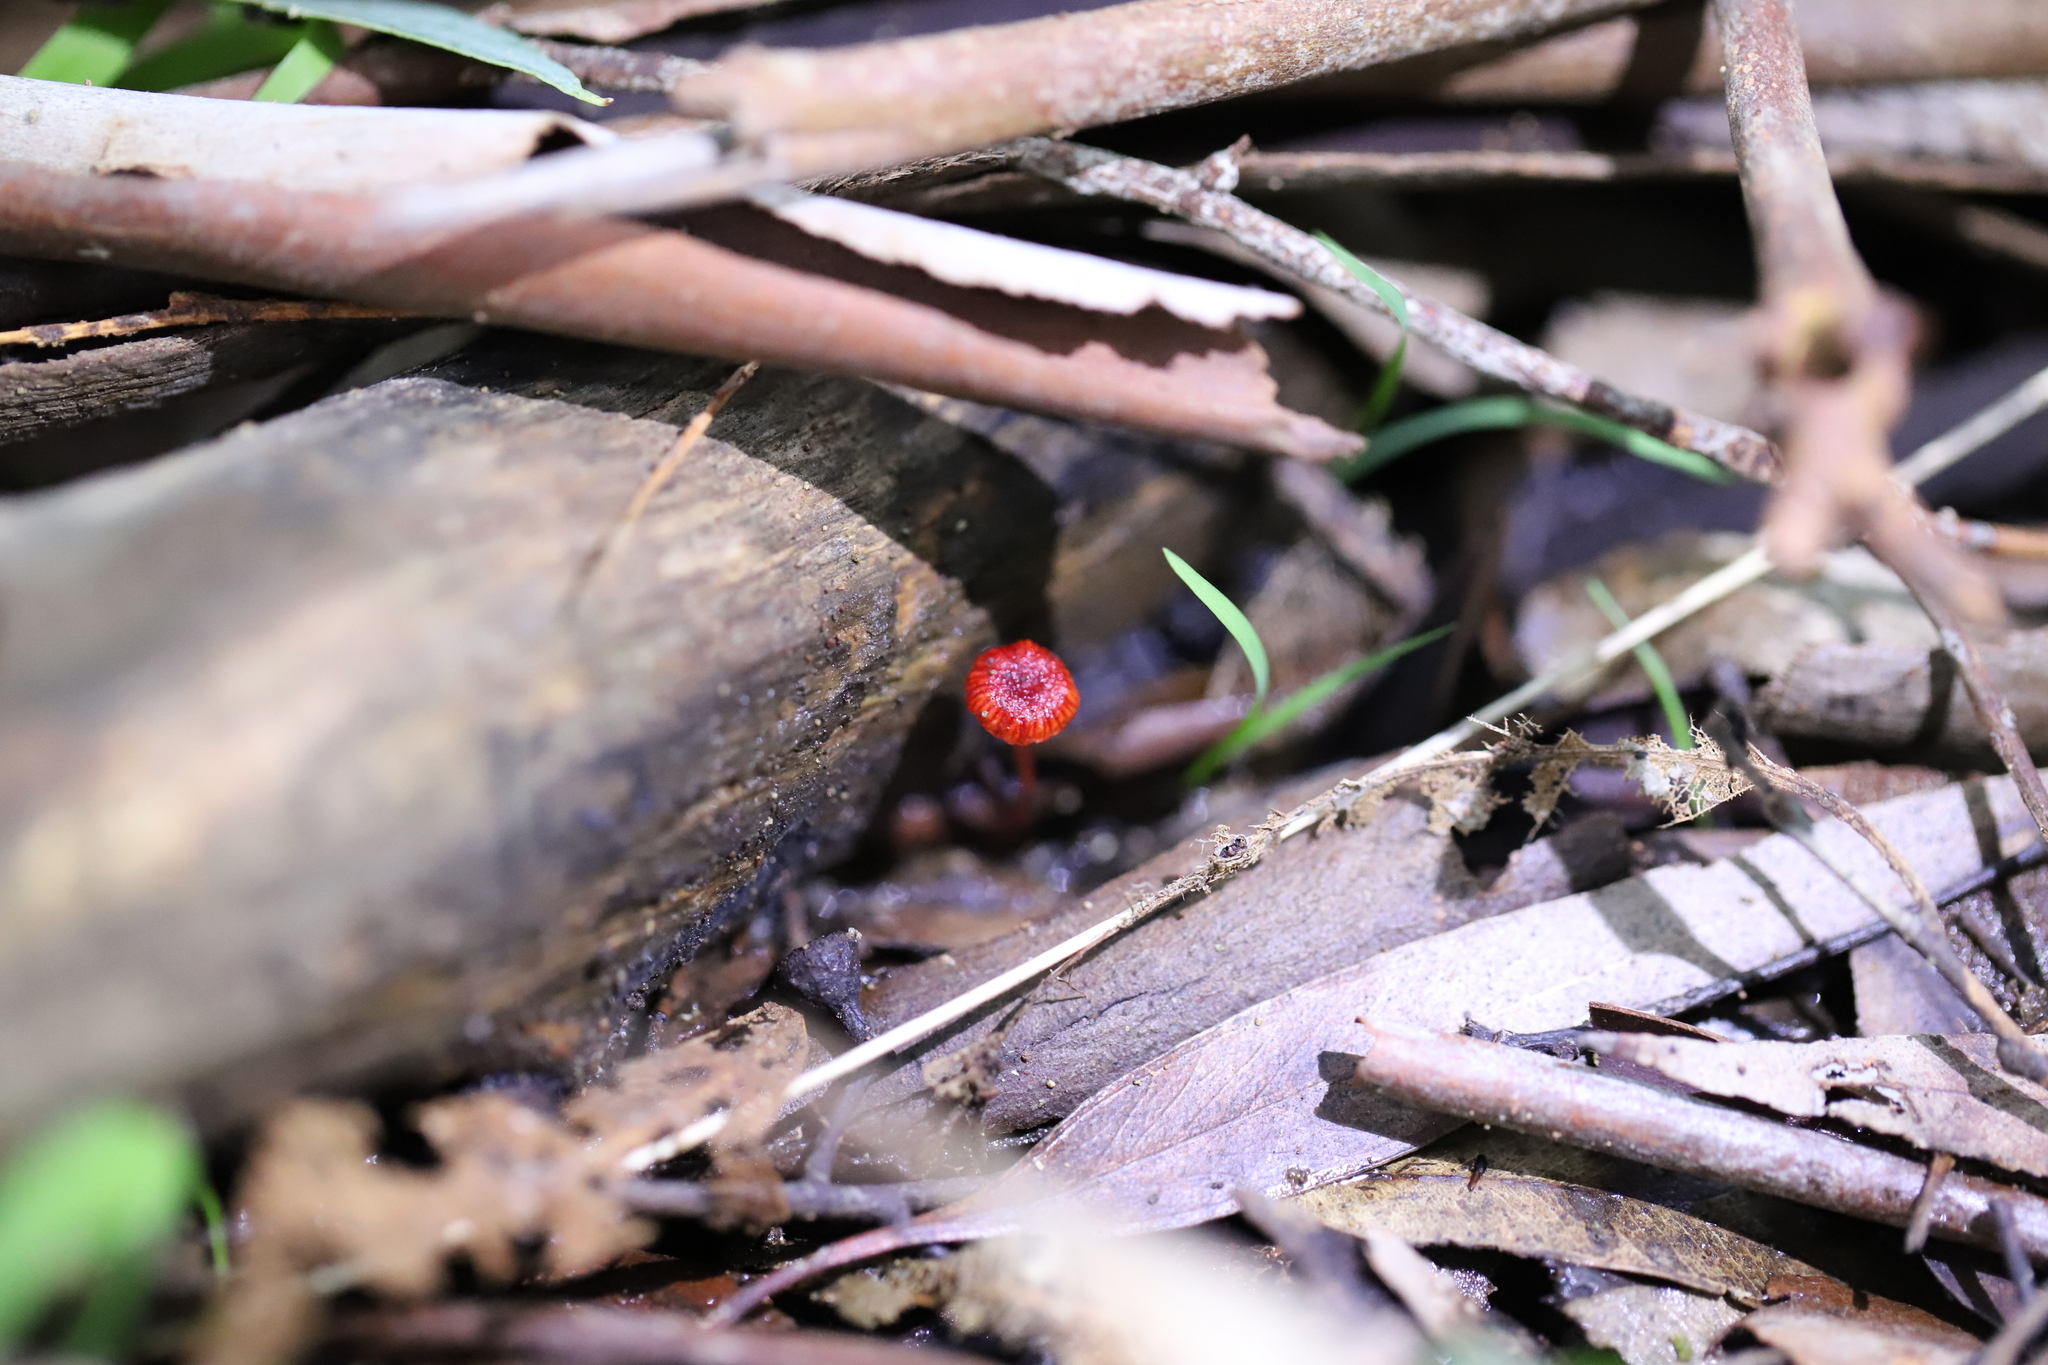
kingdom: Fungi
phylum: Basidiomycota
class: Agaricomycetes
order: Agaricales
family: Mycenaceae
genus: Cruentomycena
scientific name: Cruentomycena viscidocruenta
